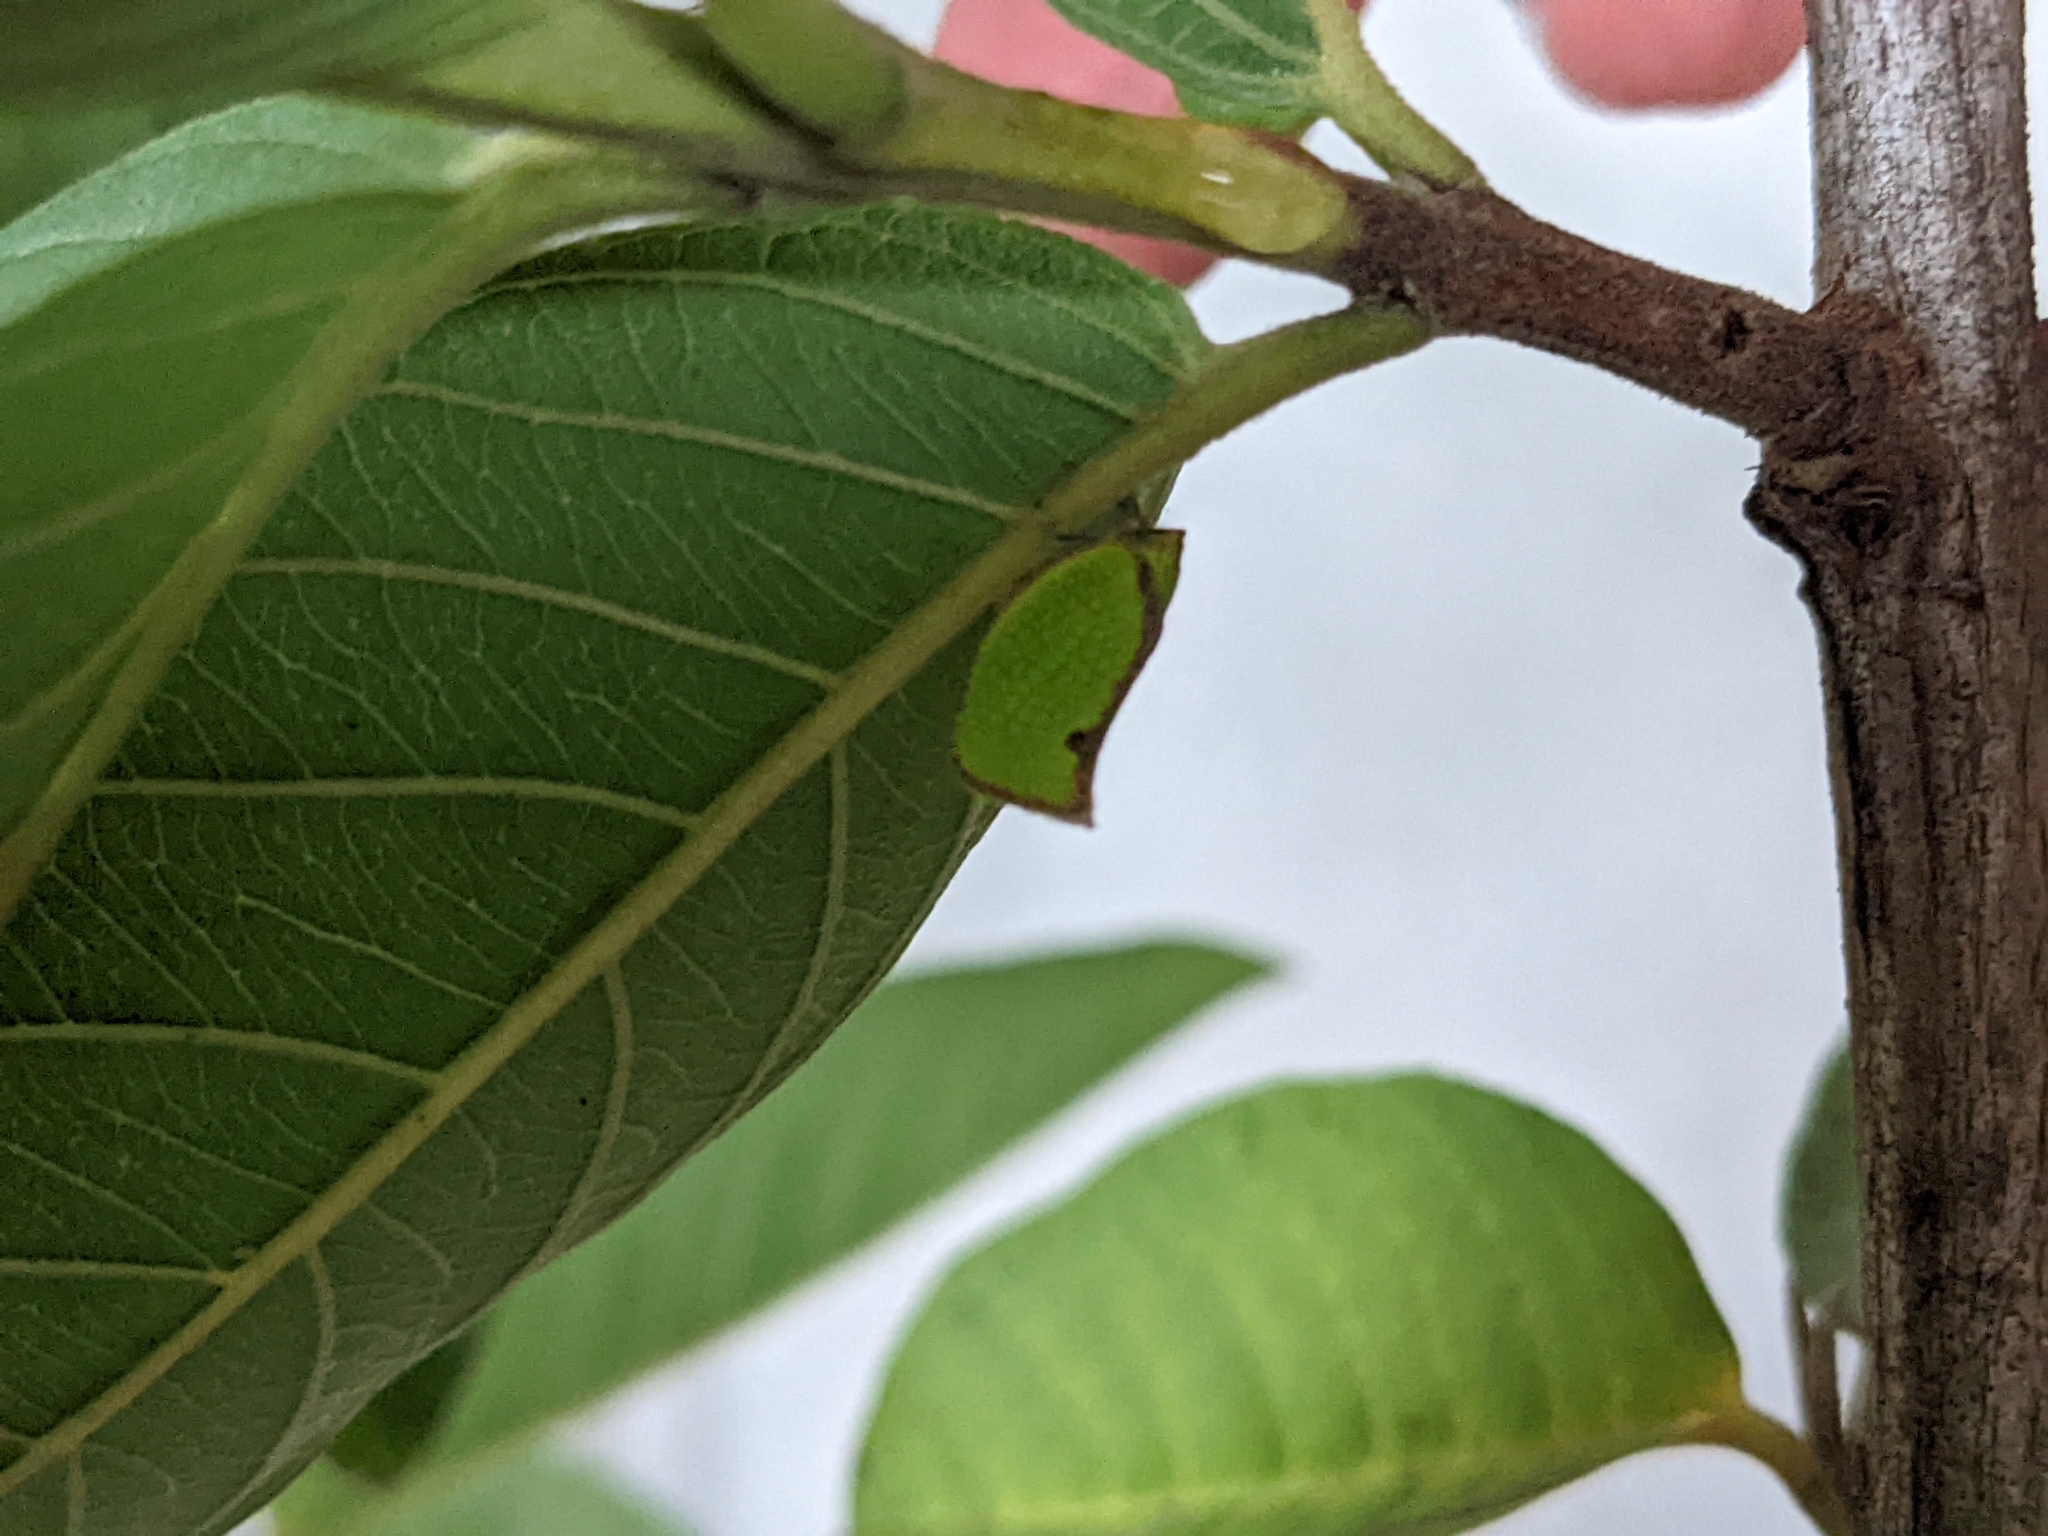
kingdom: Animalia
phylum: Arthropoda
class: Insecta
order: Hemiptera
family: Flatidae
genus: Salurnis
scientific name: Salurnis marginella
